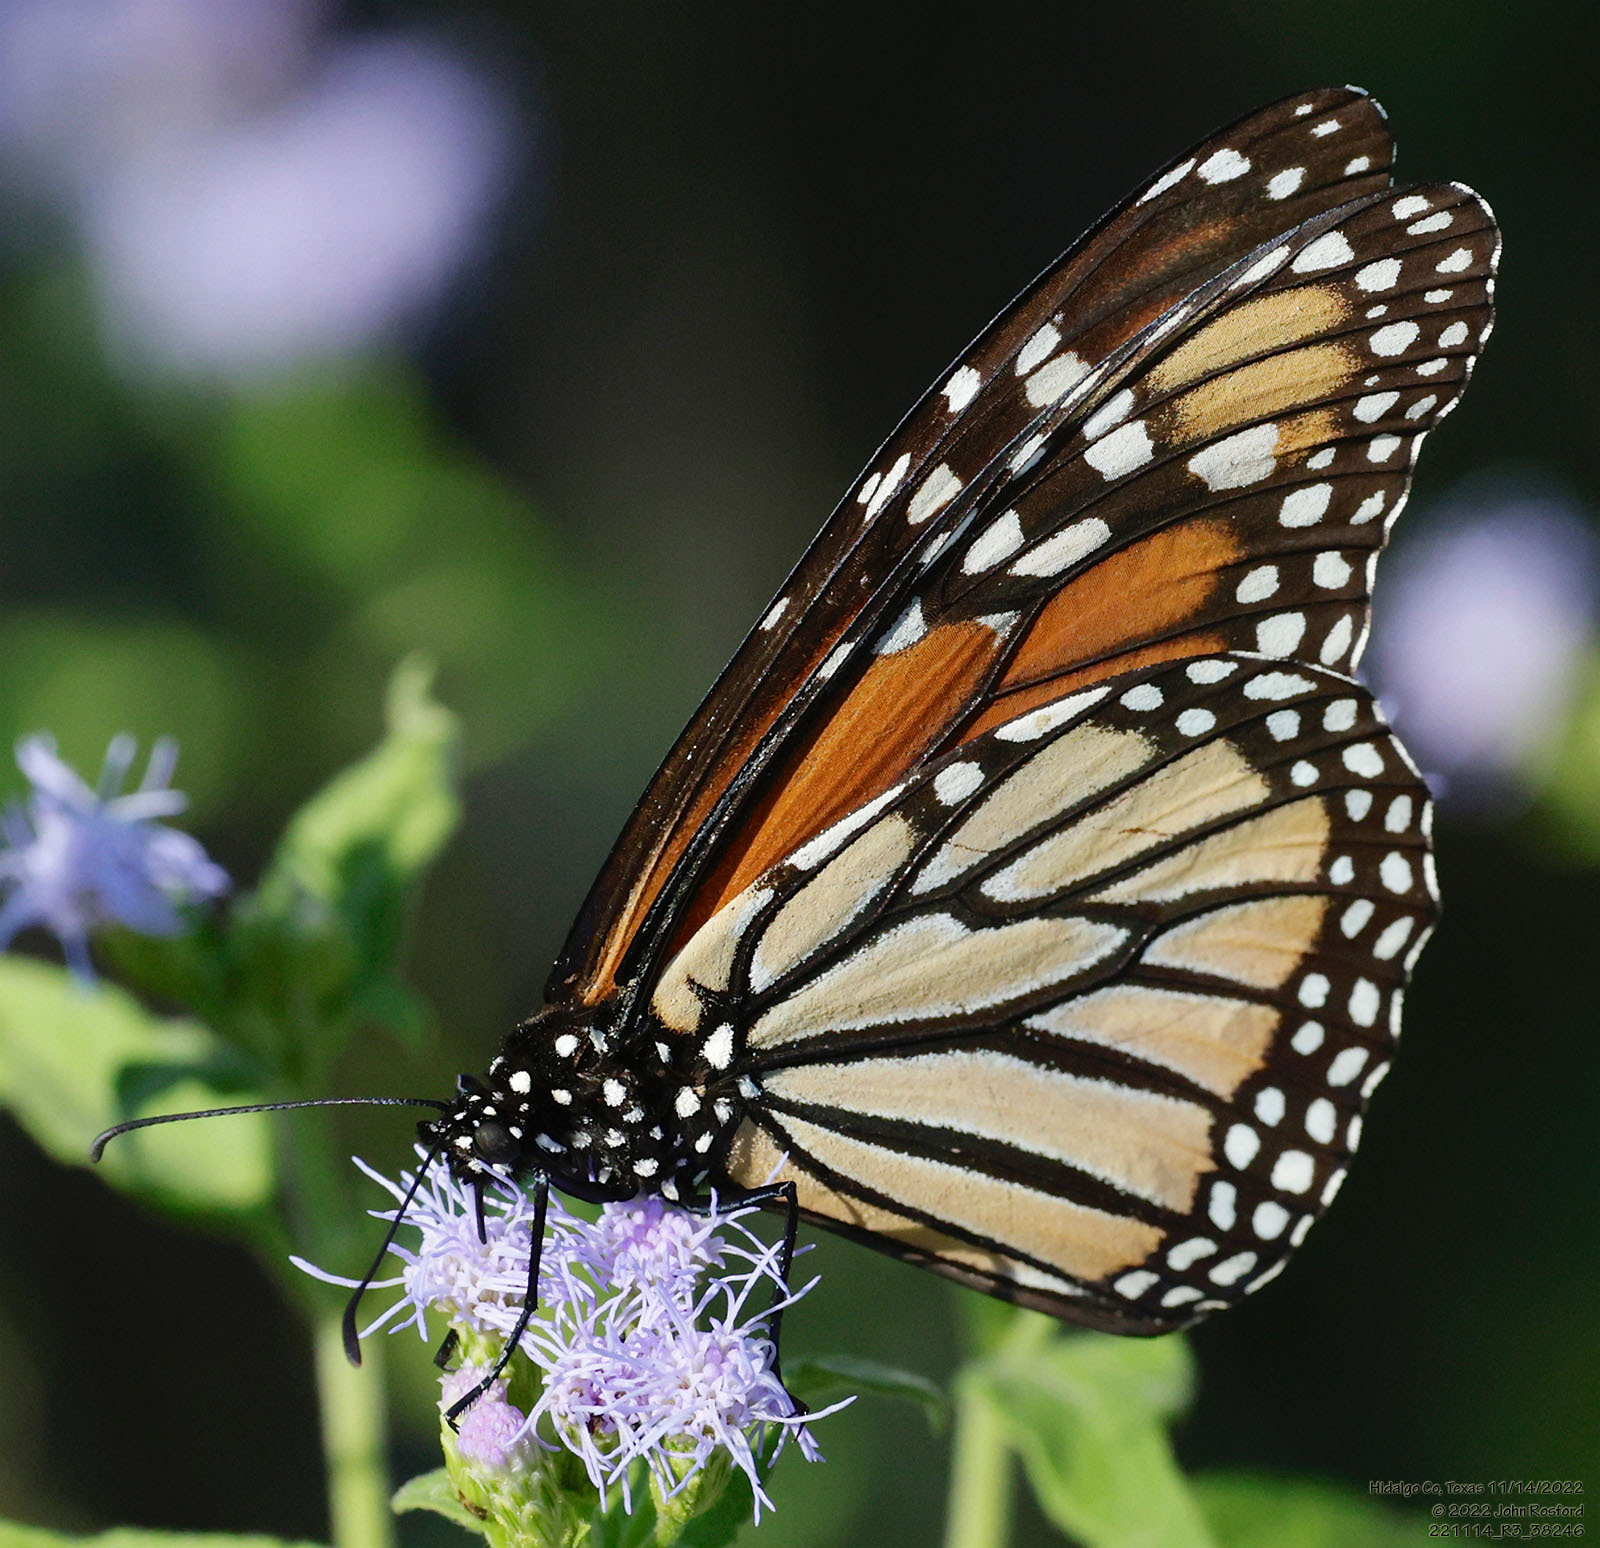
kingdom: Animalia
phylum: Arthropoda
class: Insecta
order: Lepidoptera
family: Nymphalidae
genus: Danaus
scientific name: Danaus plexippus
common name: Monarch
